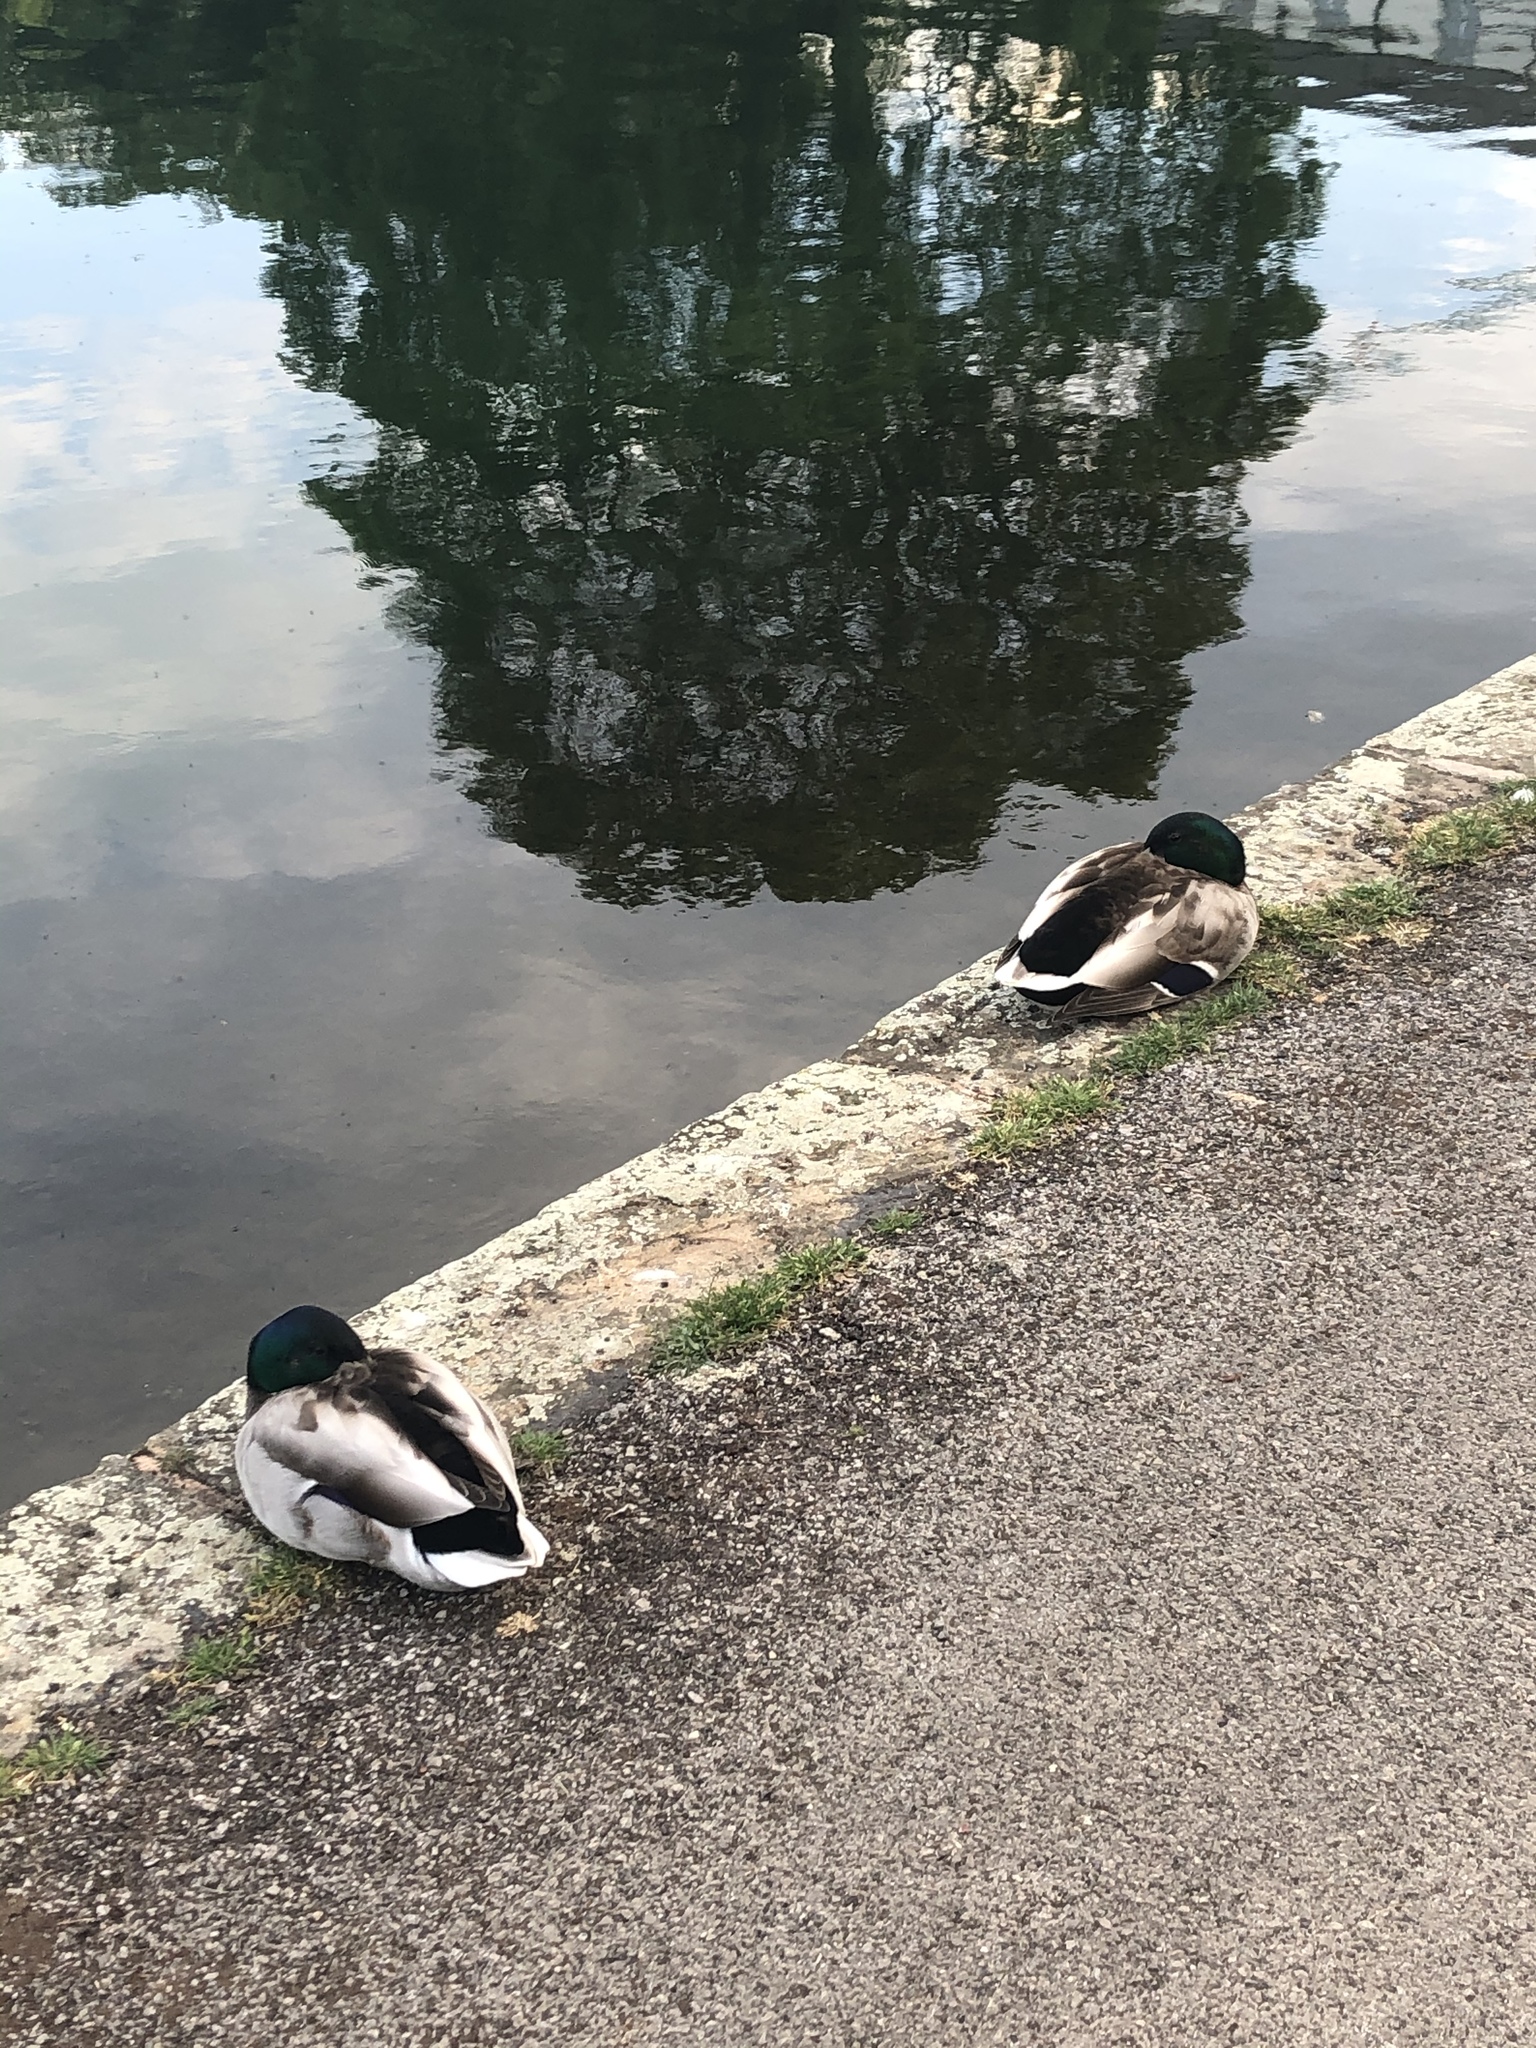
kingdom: Animalia
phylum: Chordata
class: Aves
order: Anseriformes
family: Anatidae
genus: Anas
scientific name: Anas platyrhynchos
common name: Mallard
